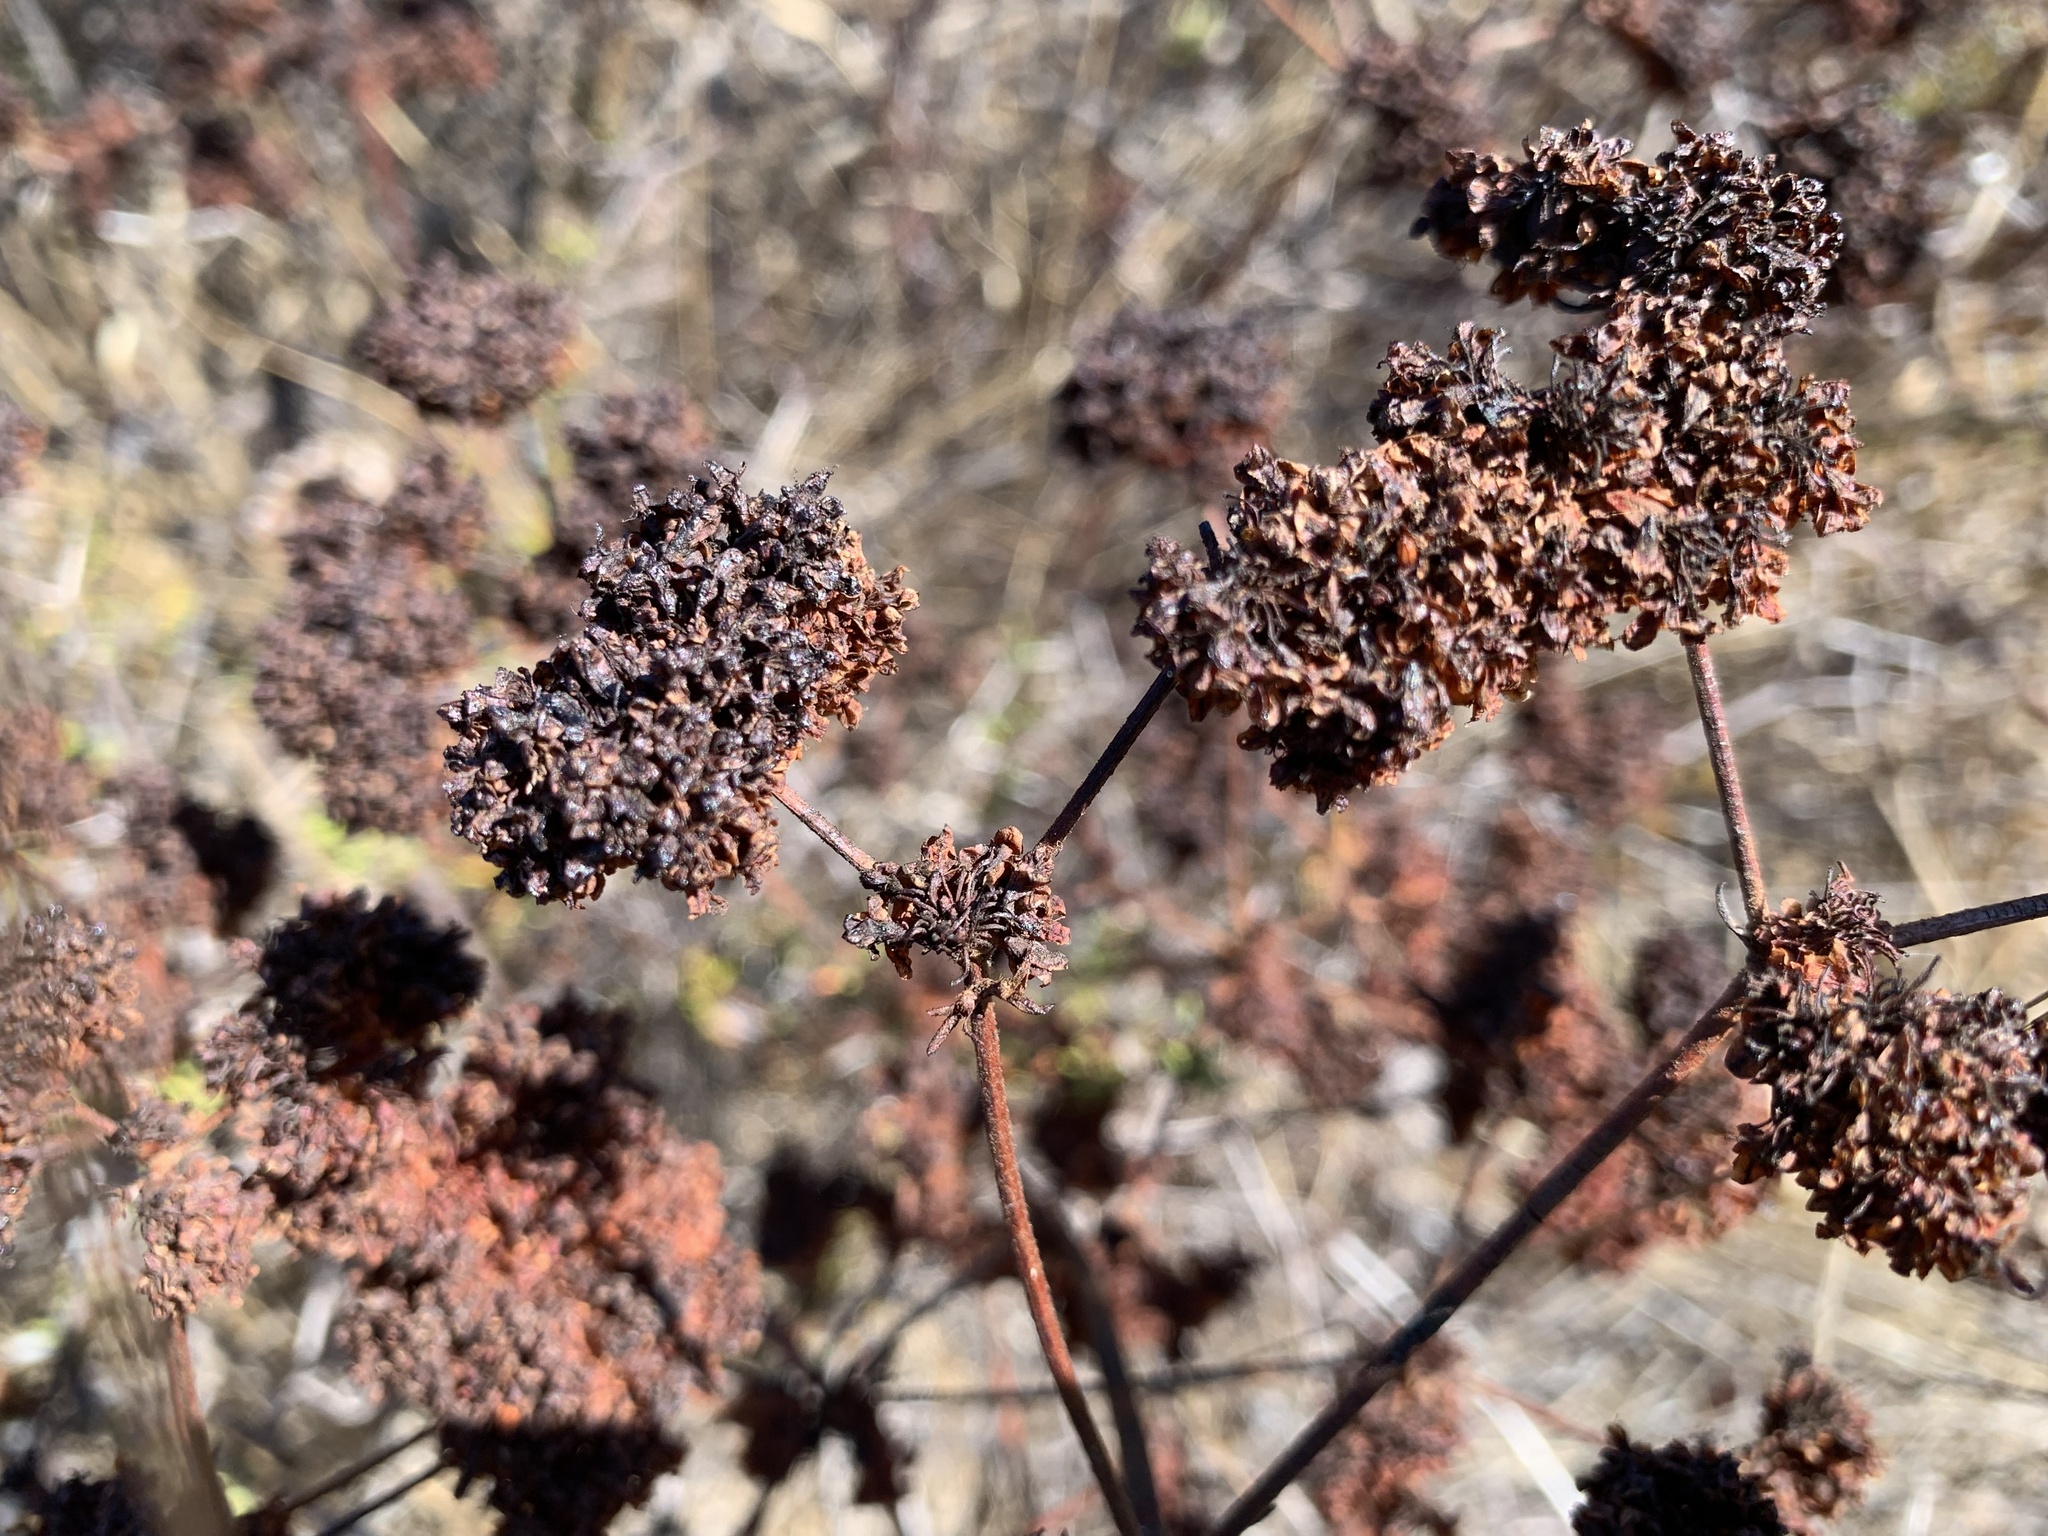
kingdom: Plantae
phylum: Tracheophyta
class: Magnoliopsida
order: Caryophyllales
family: Polygonaceae
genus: Eriogonum
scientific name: Eriogonum fasciculatum
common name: California wild buckwheat
